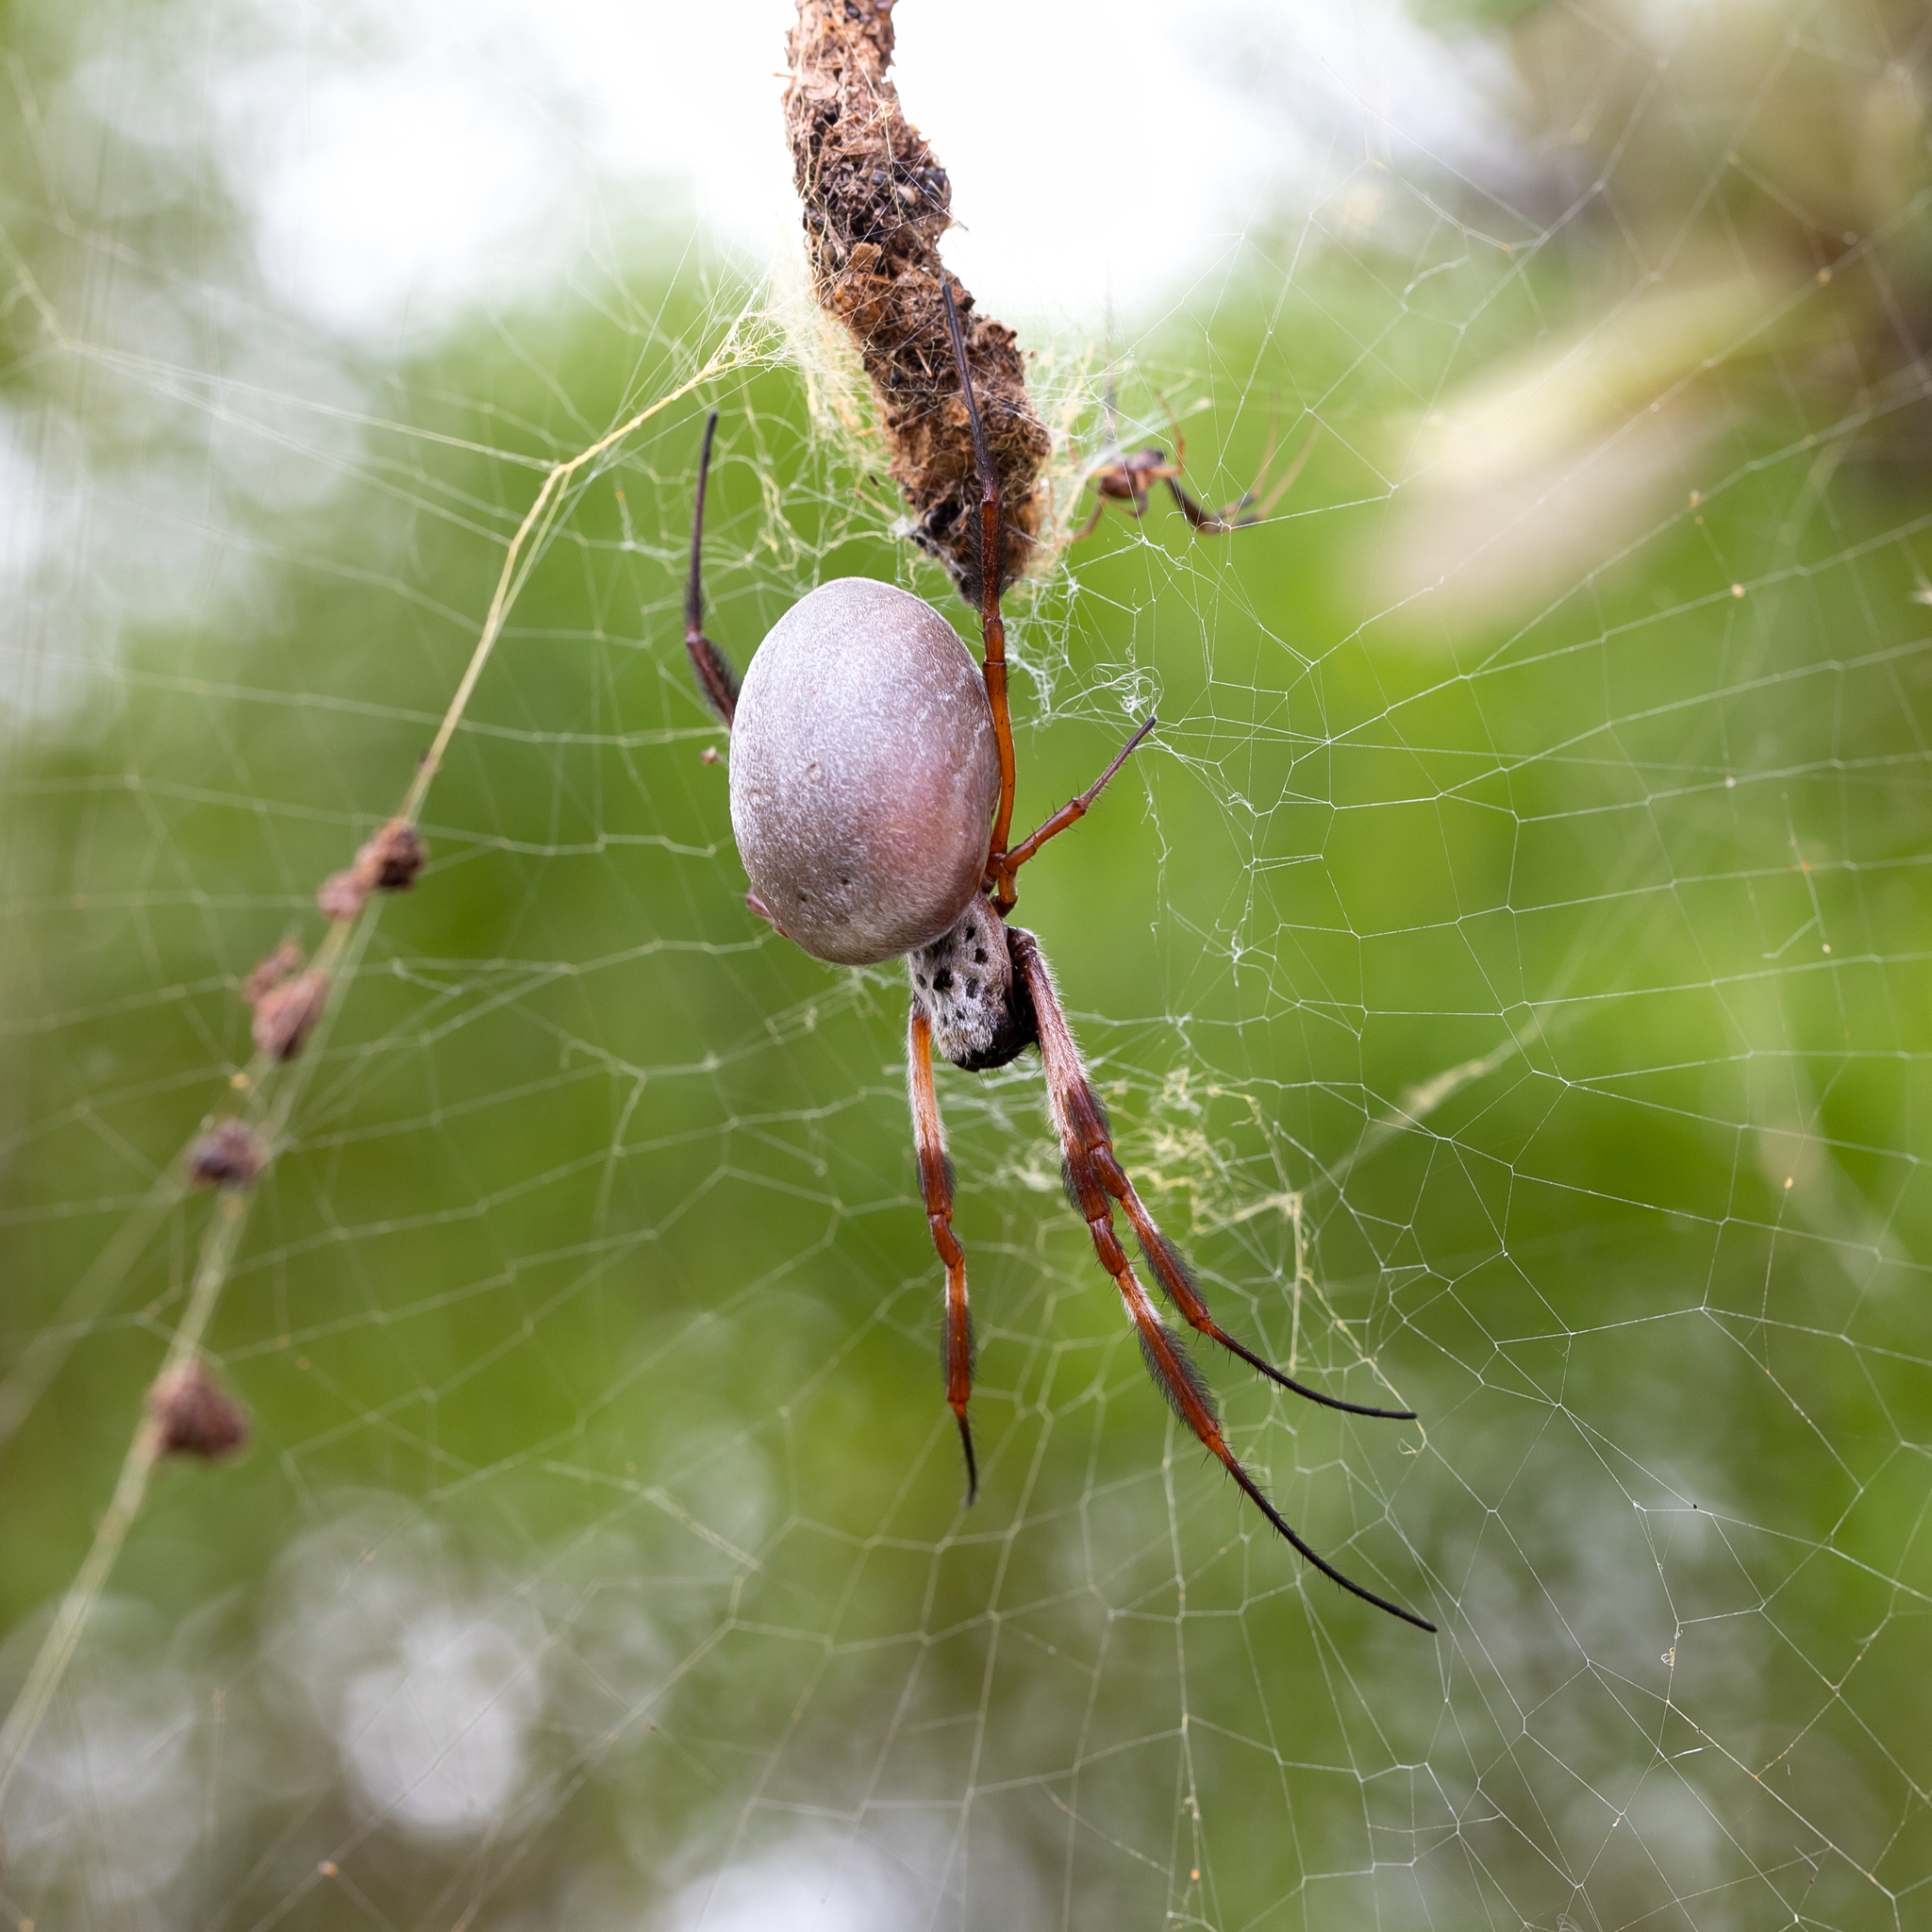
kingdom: Animalia
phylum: Arthropoda
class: Arachnida
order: Araneae
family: Araneidae
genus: Trichonephila
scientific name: Trichonephila edulis
